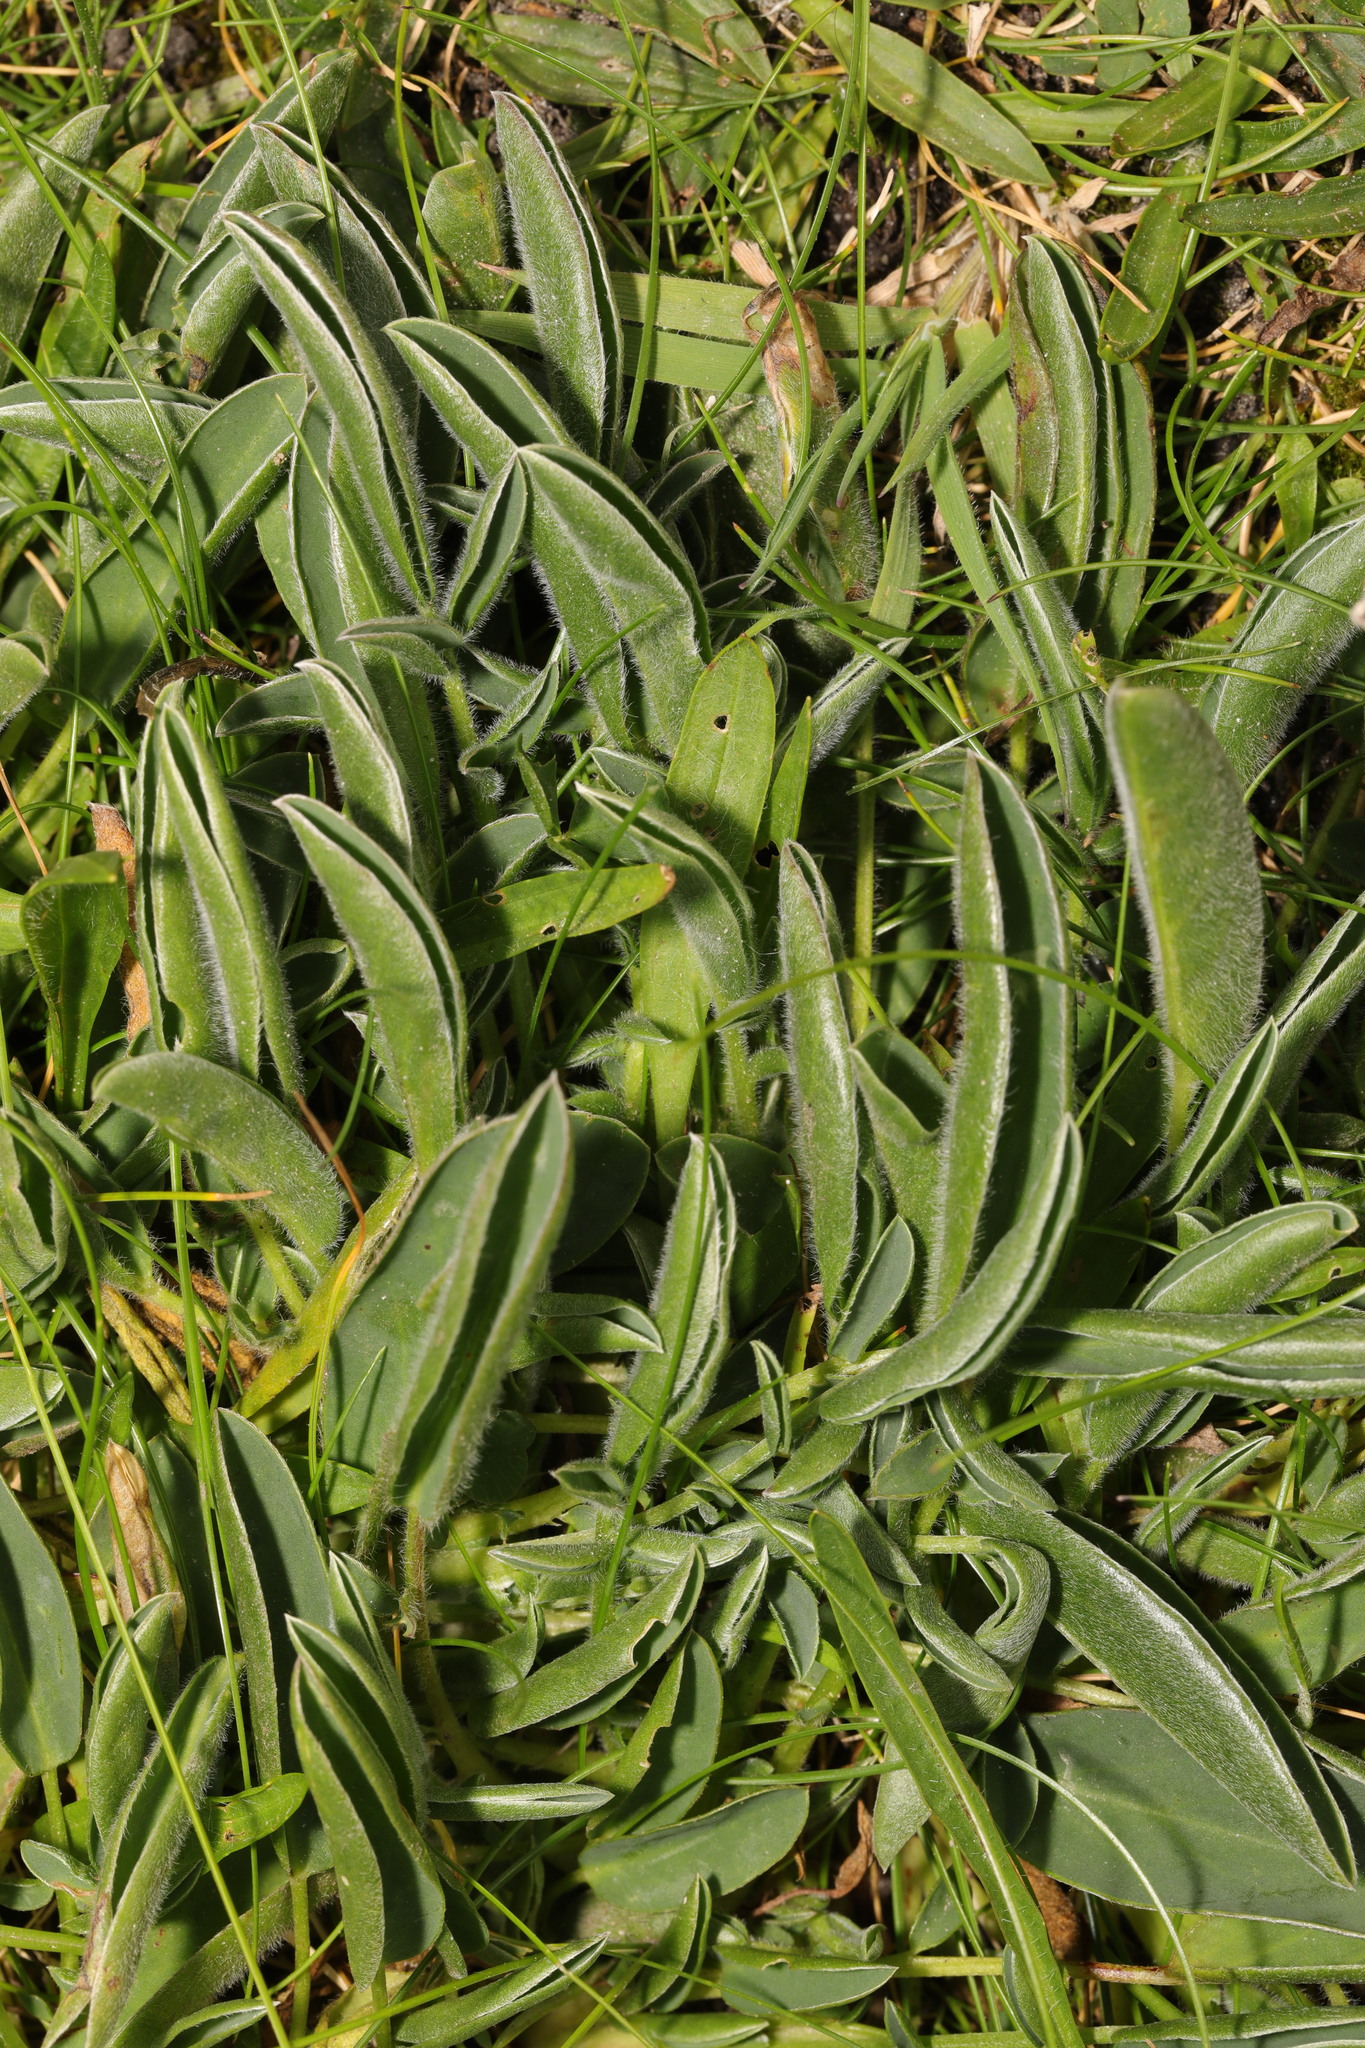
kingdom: Plantae
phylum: Tracheophyta
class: Magnoliopsida
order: Fabales
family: Fabaceae
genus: Anthyllis
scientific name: Anthyllis vulneraria
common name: Kidney vetch
